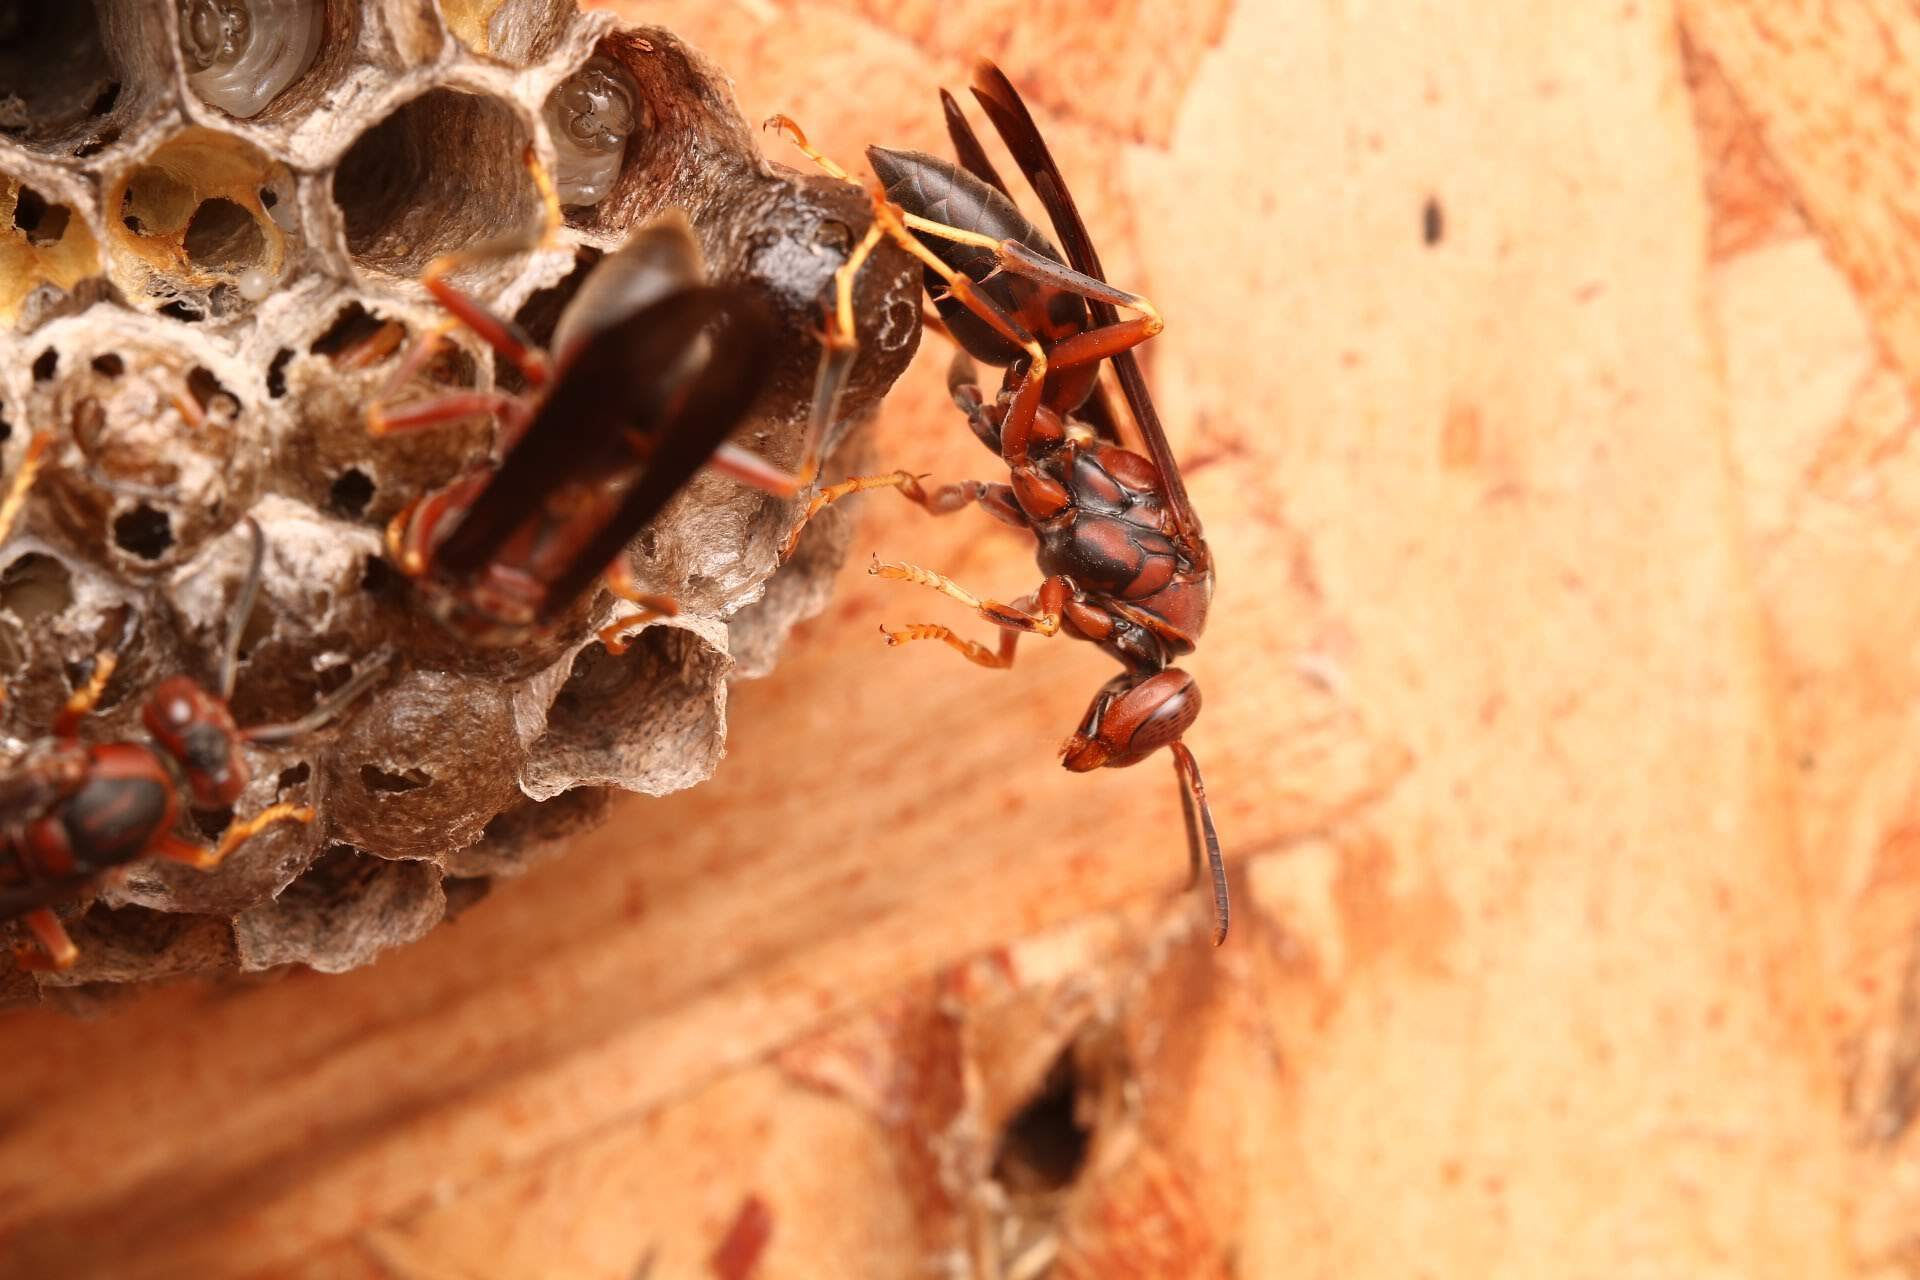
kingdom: Animalia
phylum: Arthropoda
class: Insecta
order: Hymenoptera
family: Eumenidae
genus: Polistes
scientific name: Polistes metricus
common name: Metric paper wasp
